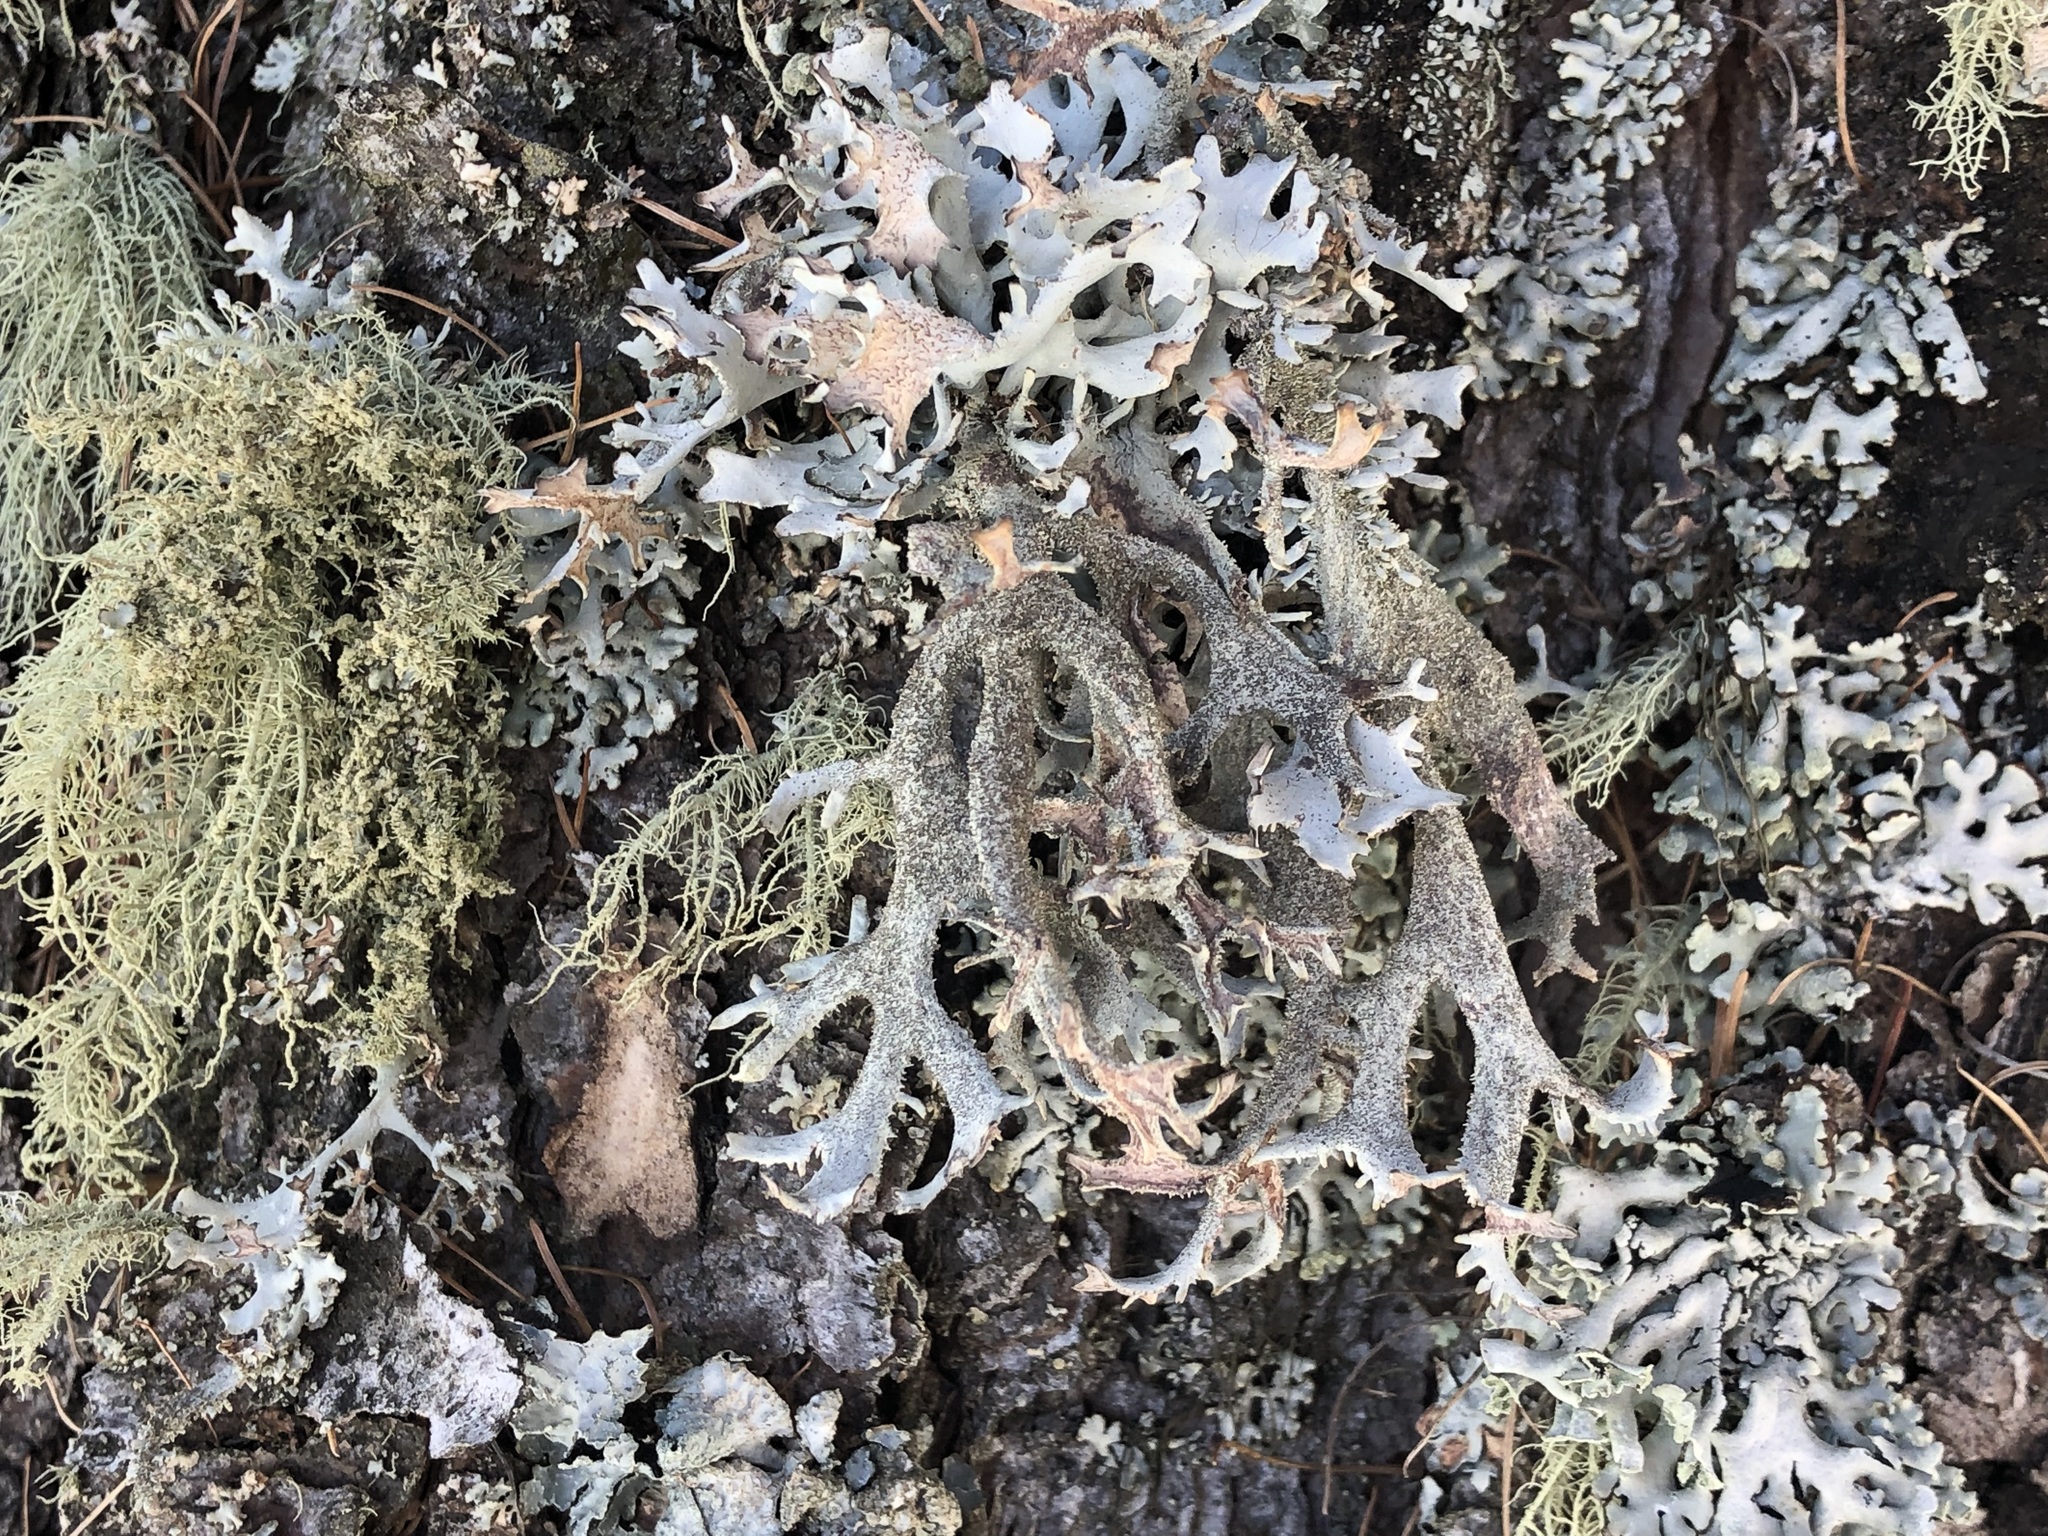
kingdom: Fungi
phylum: Ascomycota
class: Lecanoromycetes
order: Lecanorales
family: Parmeliaceae
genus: Pseudevernia
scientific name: Pseudevernia furfuracea
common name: Tree moss
